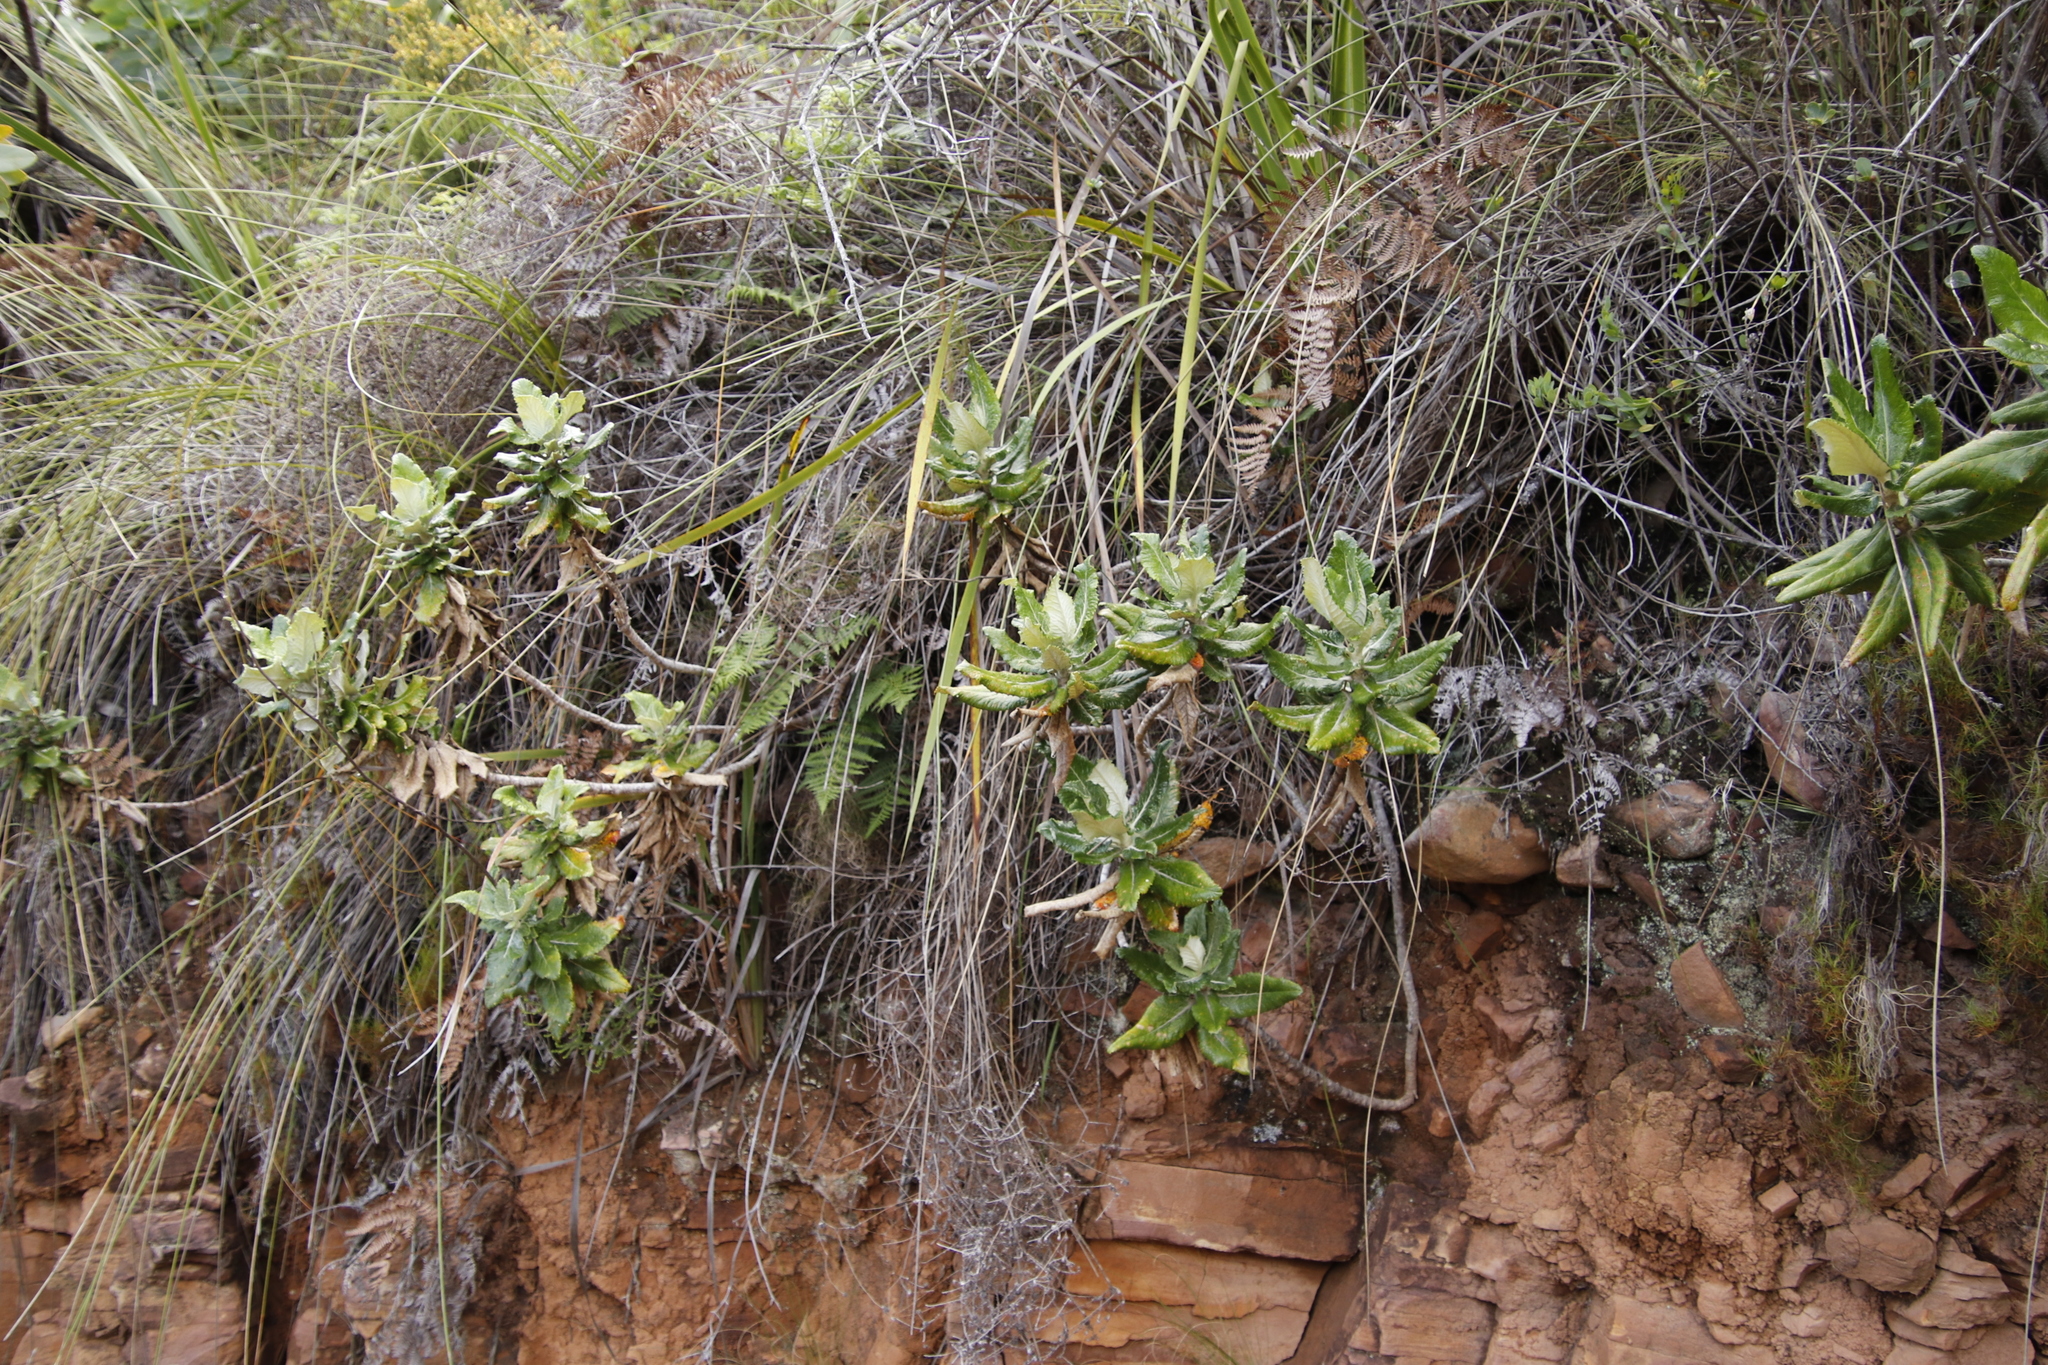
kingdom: Plantae
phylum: Tracheophyta
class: Magnoliopsida
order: Apiales
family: Apiaceae
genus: Hermas
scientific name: Hermas villosa
